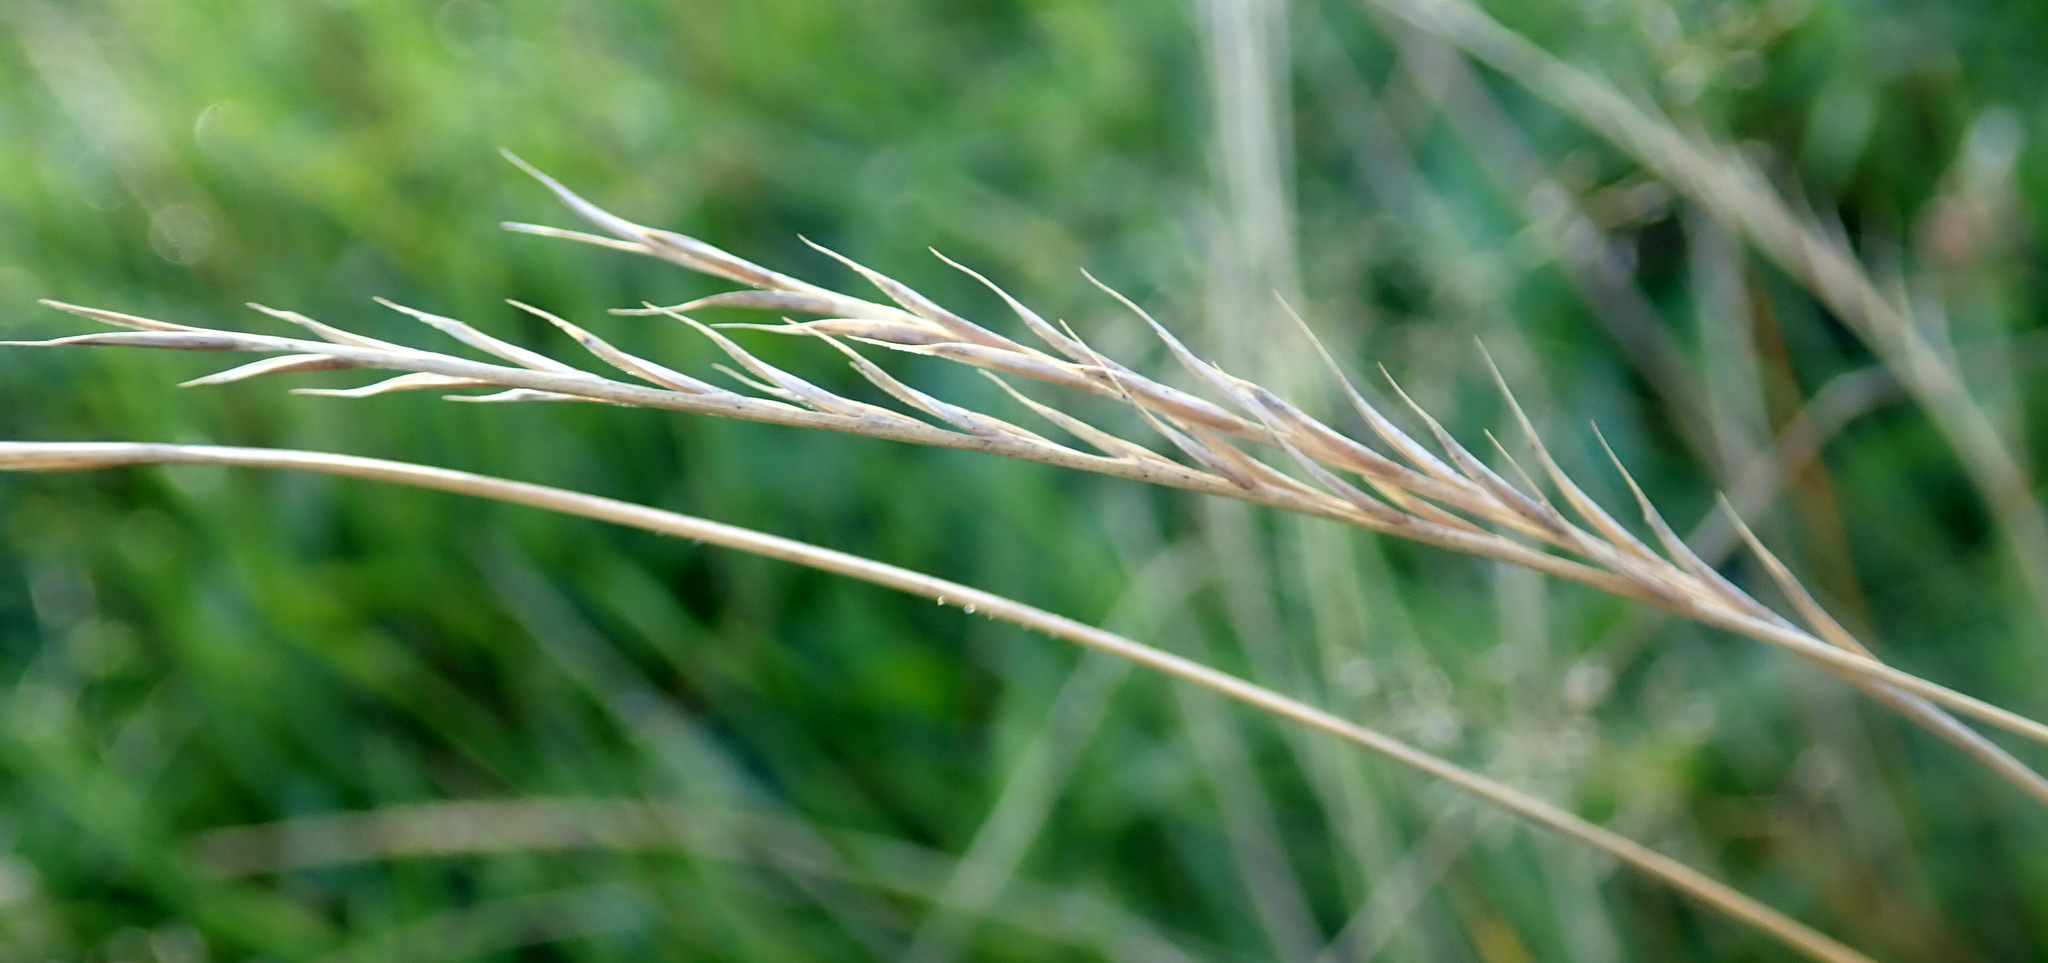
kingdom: Plantae
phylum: Tracheophyta
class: Liliopsida
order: Poales
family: Poaceae
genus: Nardus
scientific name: Nardus stricta
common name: Mat-grass
